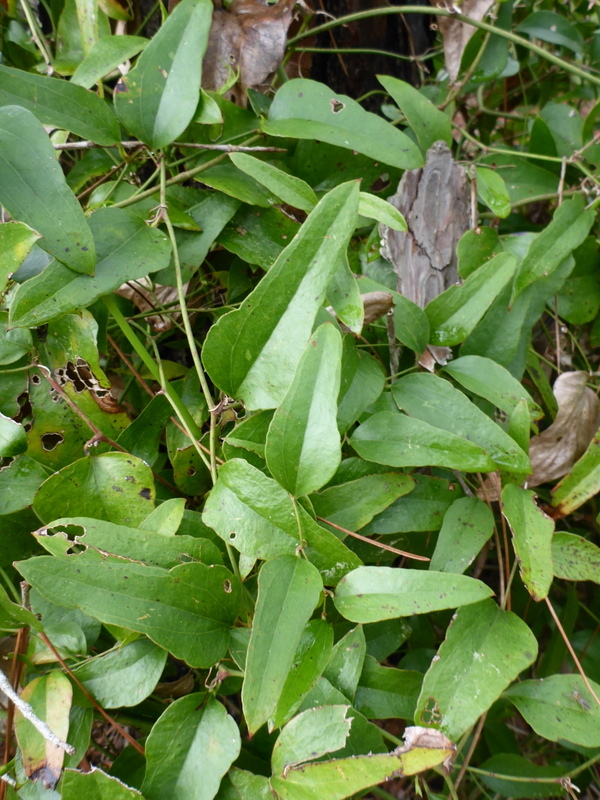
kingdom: Plantae
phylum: Tracheophyta
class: Liliopsida
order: Liliales
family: Smilacaceae
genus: Smilax
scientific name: Smilax auriculata
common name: Wild bamboo
